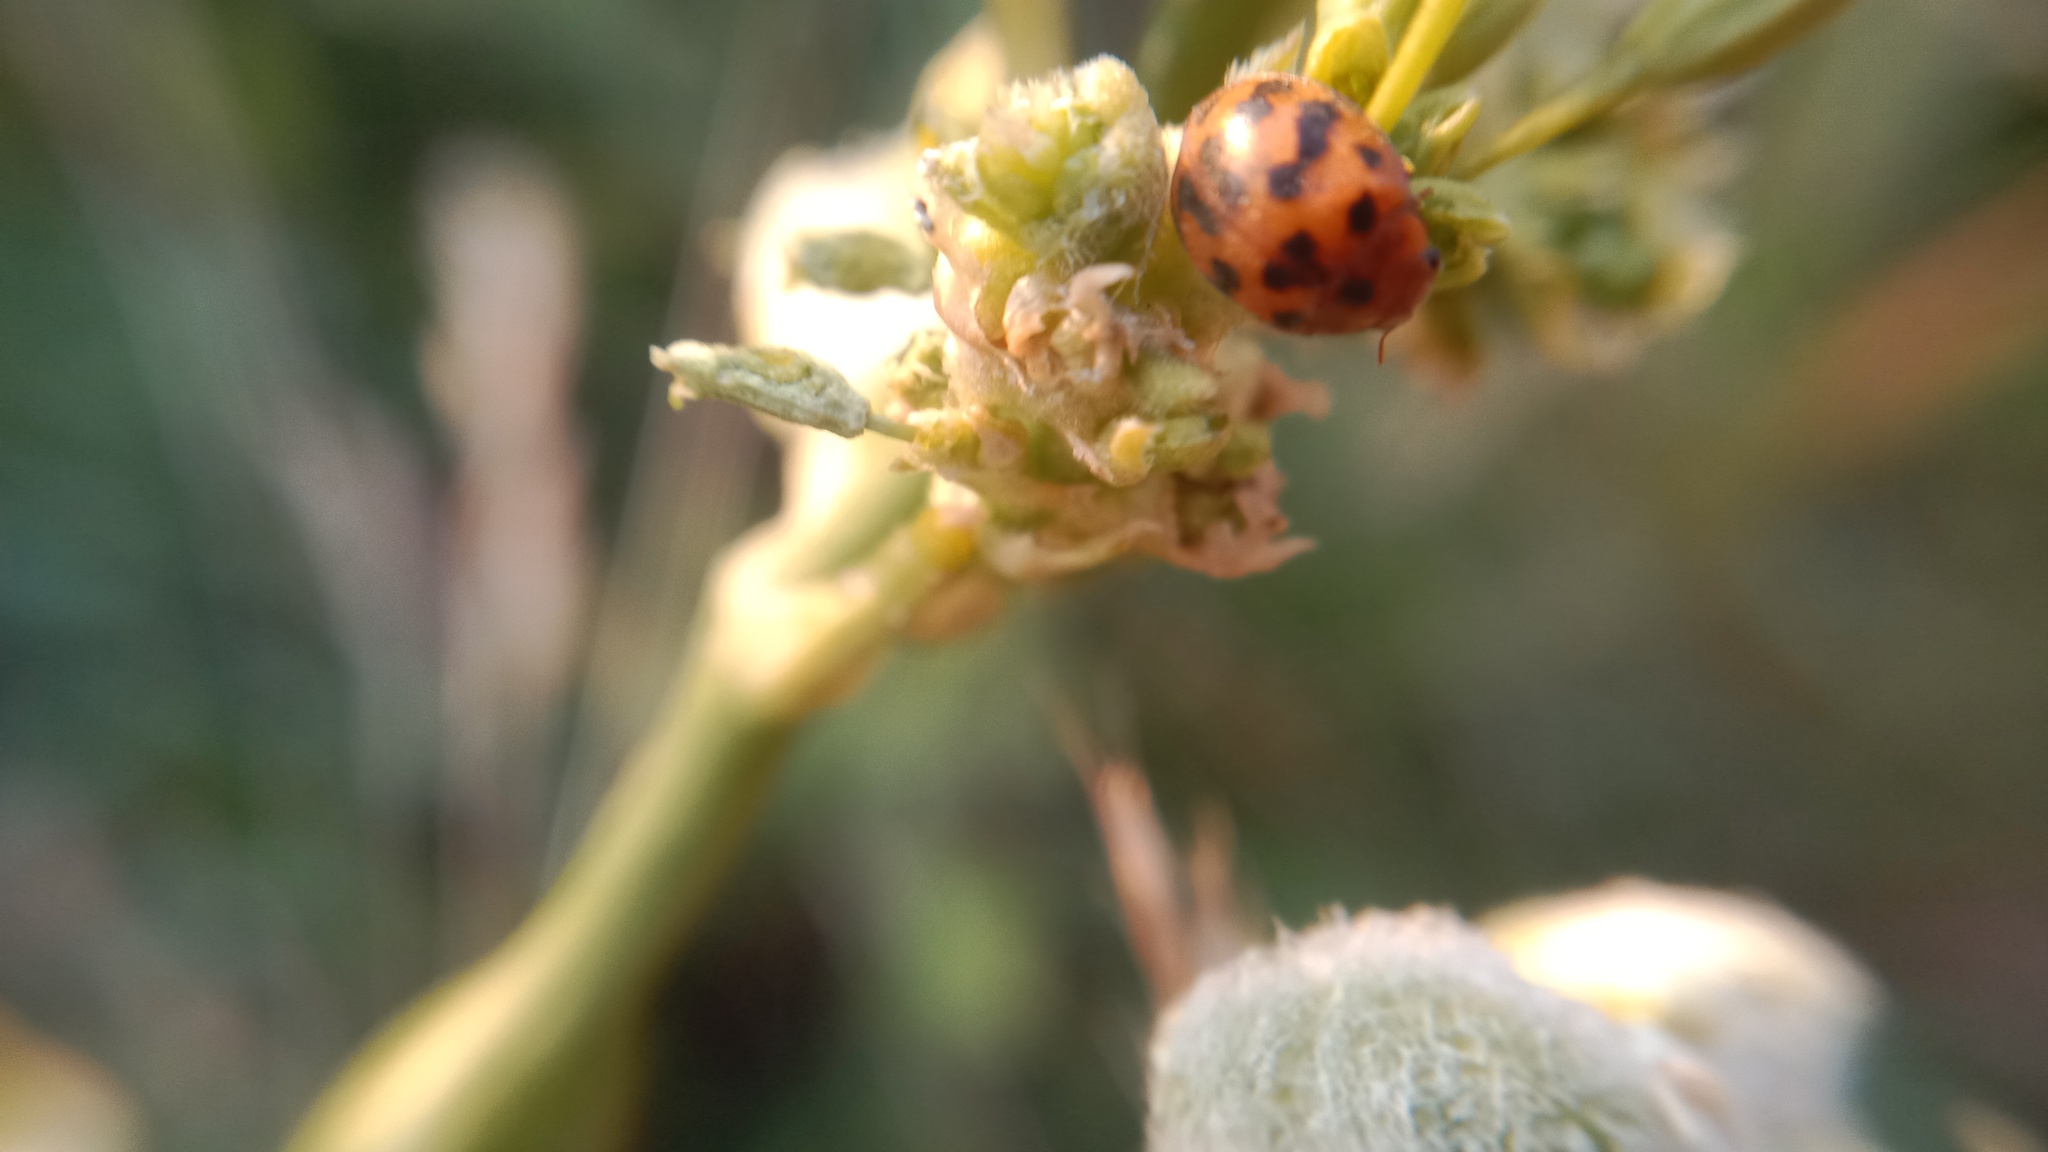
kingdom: Animalia
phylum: Arthropoda
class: Insecta
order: Coleoptera
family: Coccinellidae
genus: Subcoccinella
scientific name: Subcoccinella vigintiquatuorpunctata
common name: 24-spot ladybird
